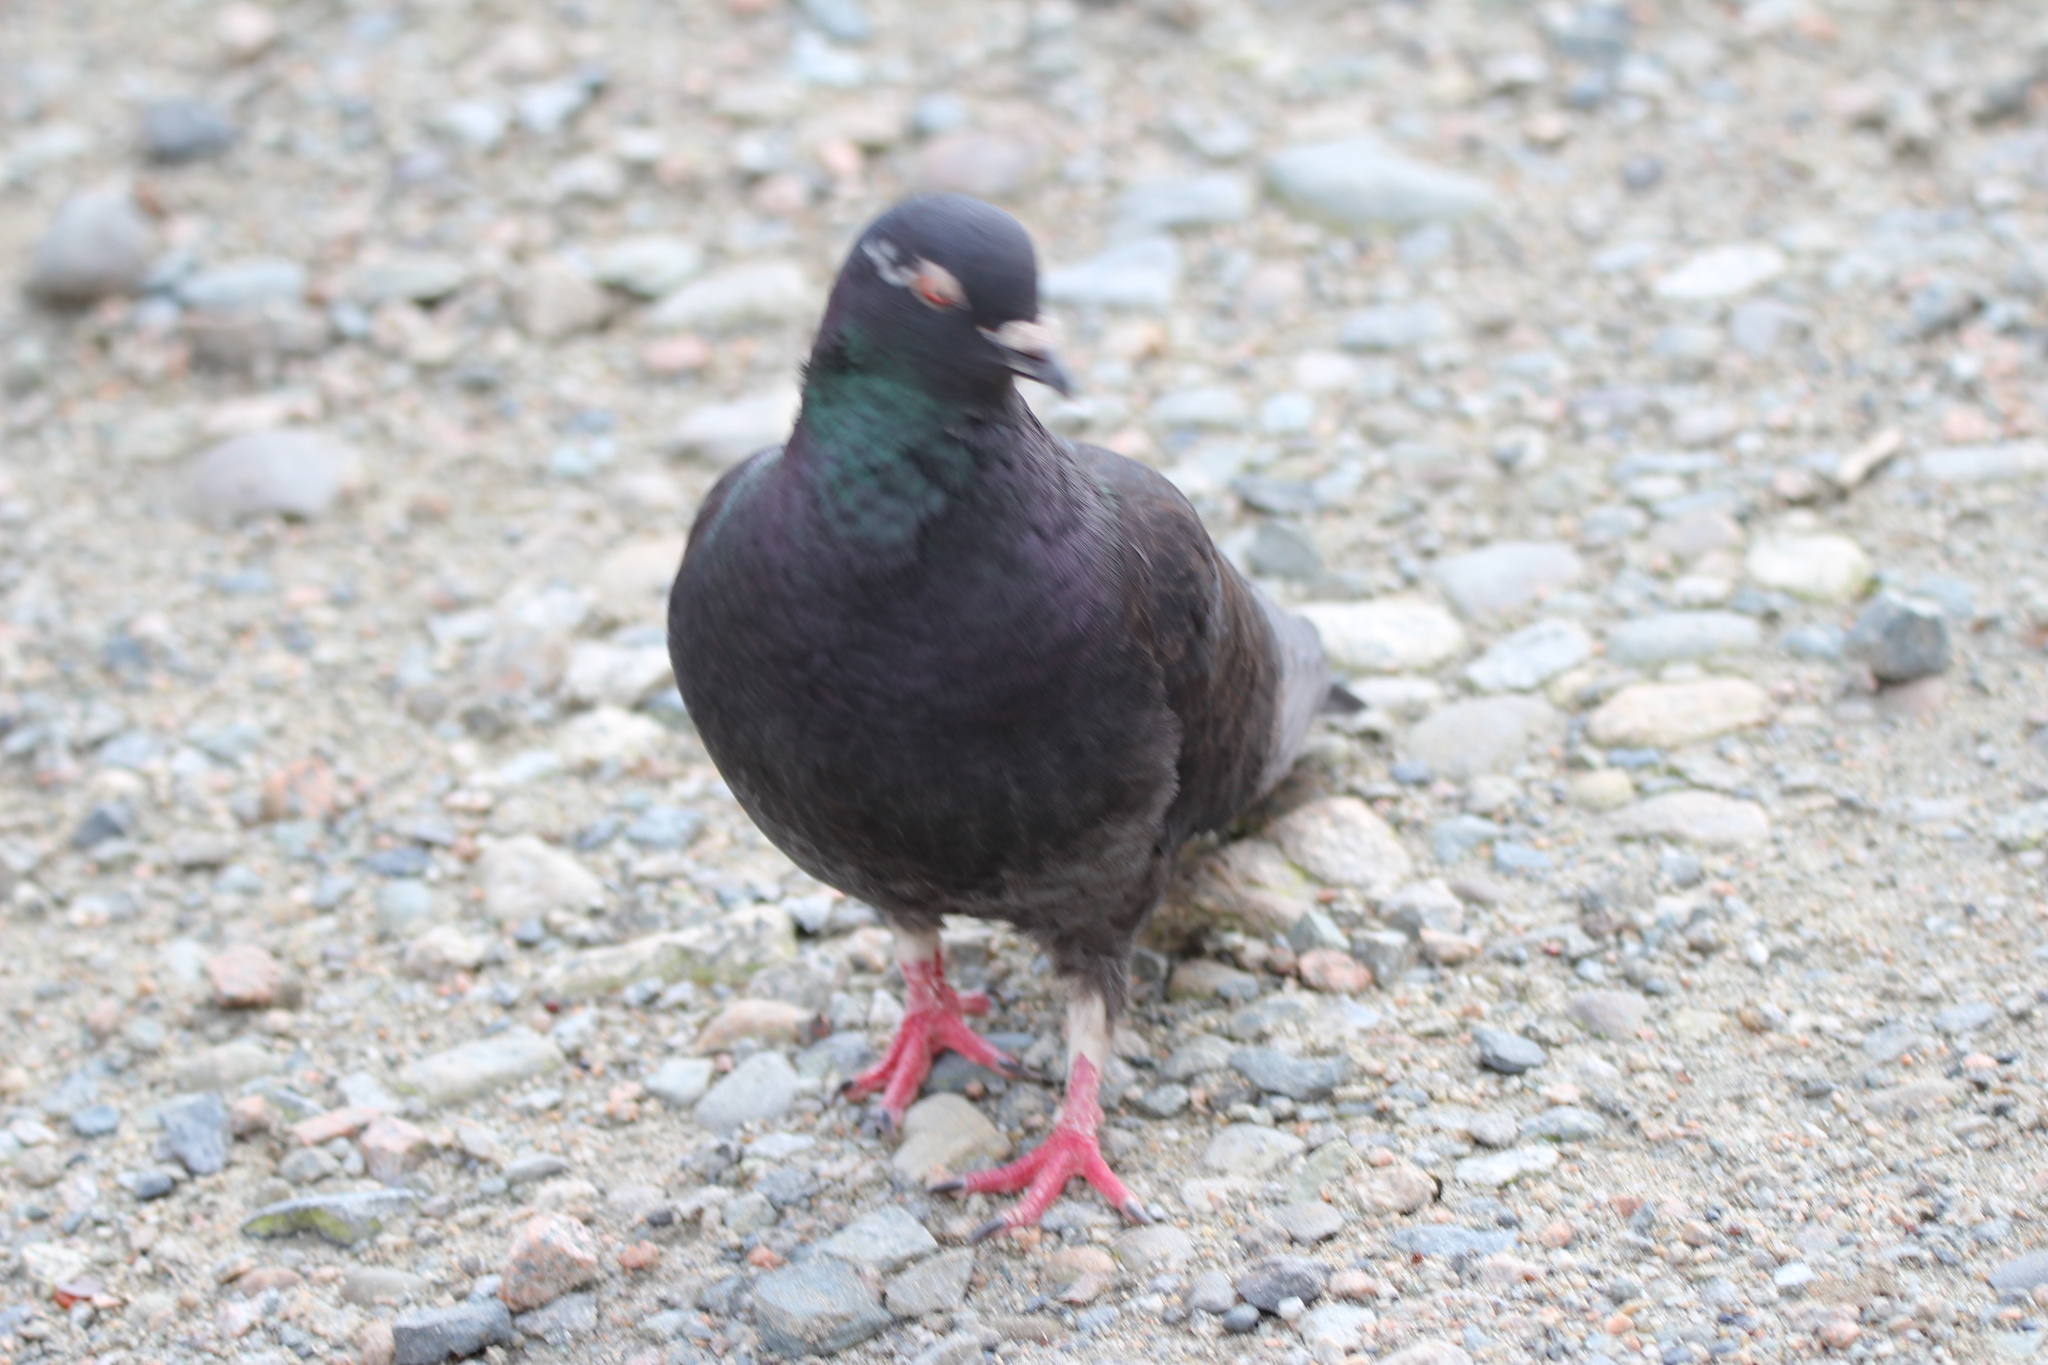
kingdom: Animalia
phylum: Chordata
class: Aves
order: Columbiformes
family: Columbidae
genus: Columba
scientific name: Columba livia
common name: Rock pigeon
